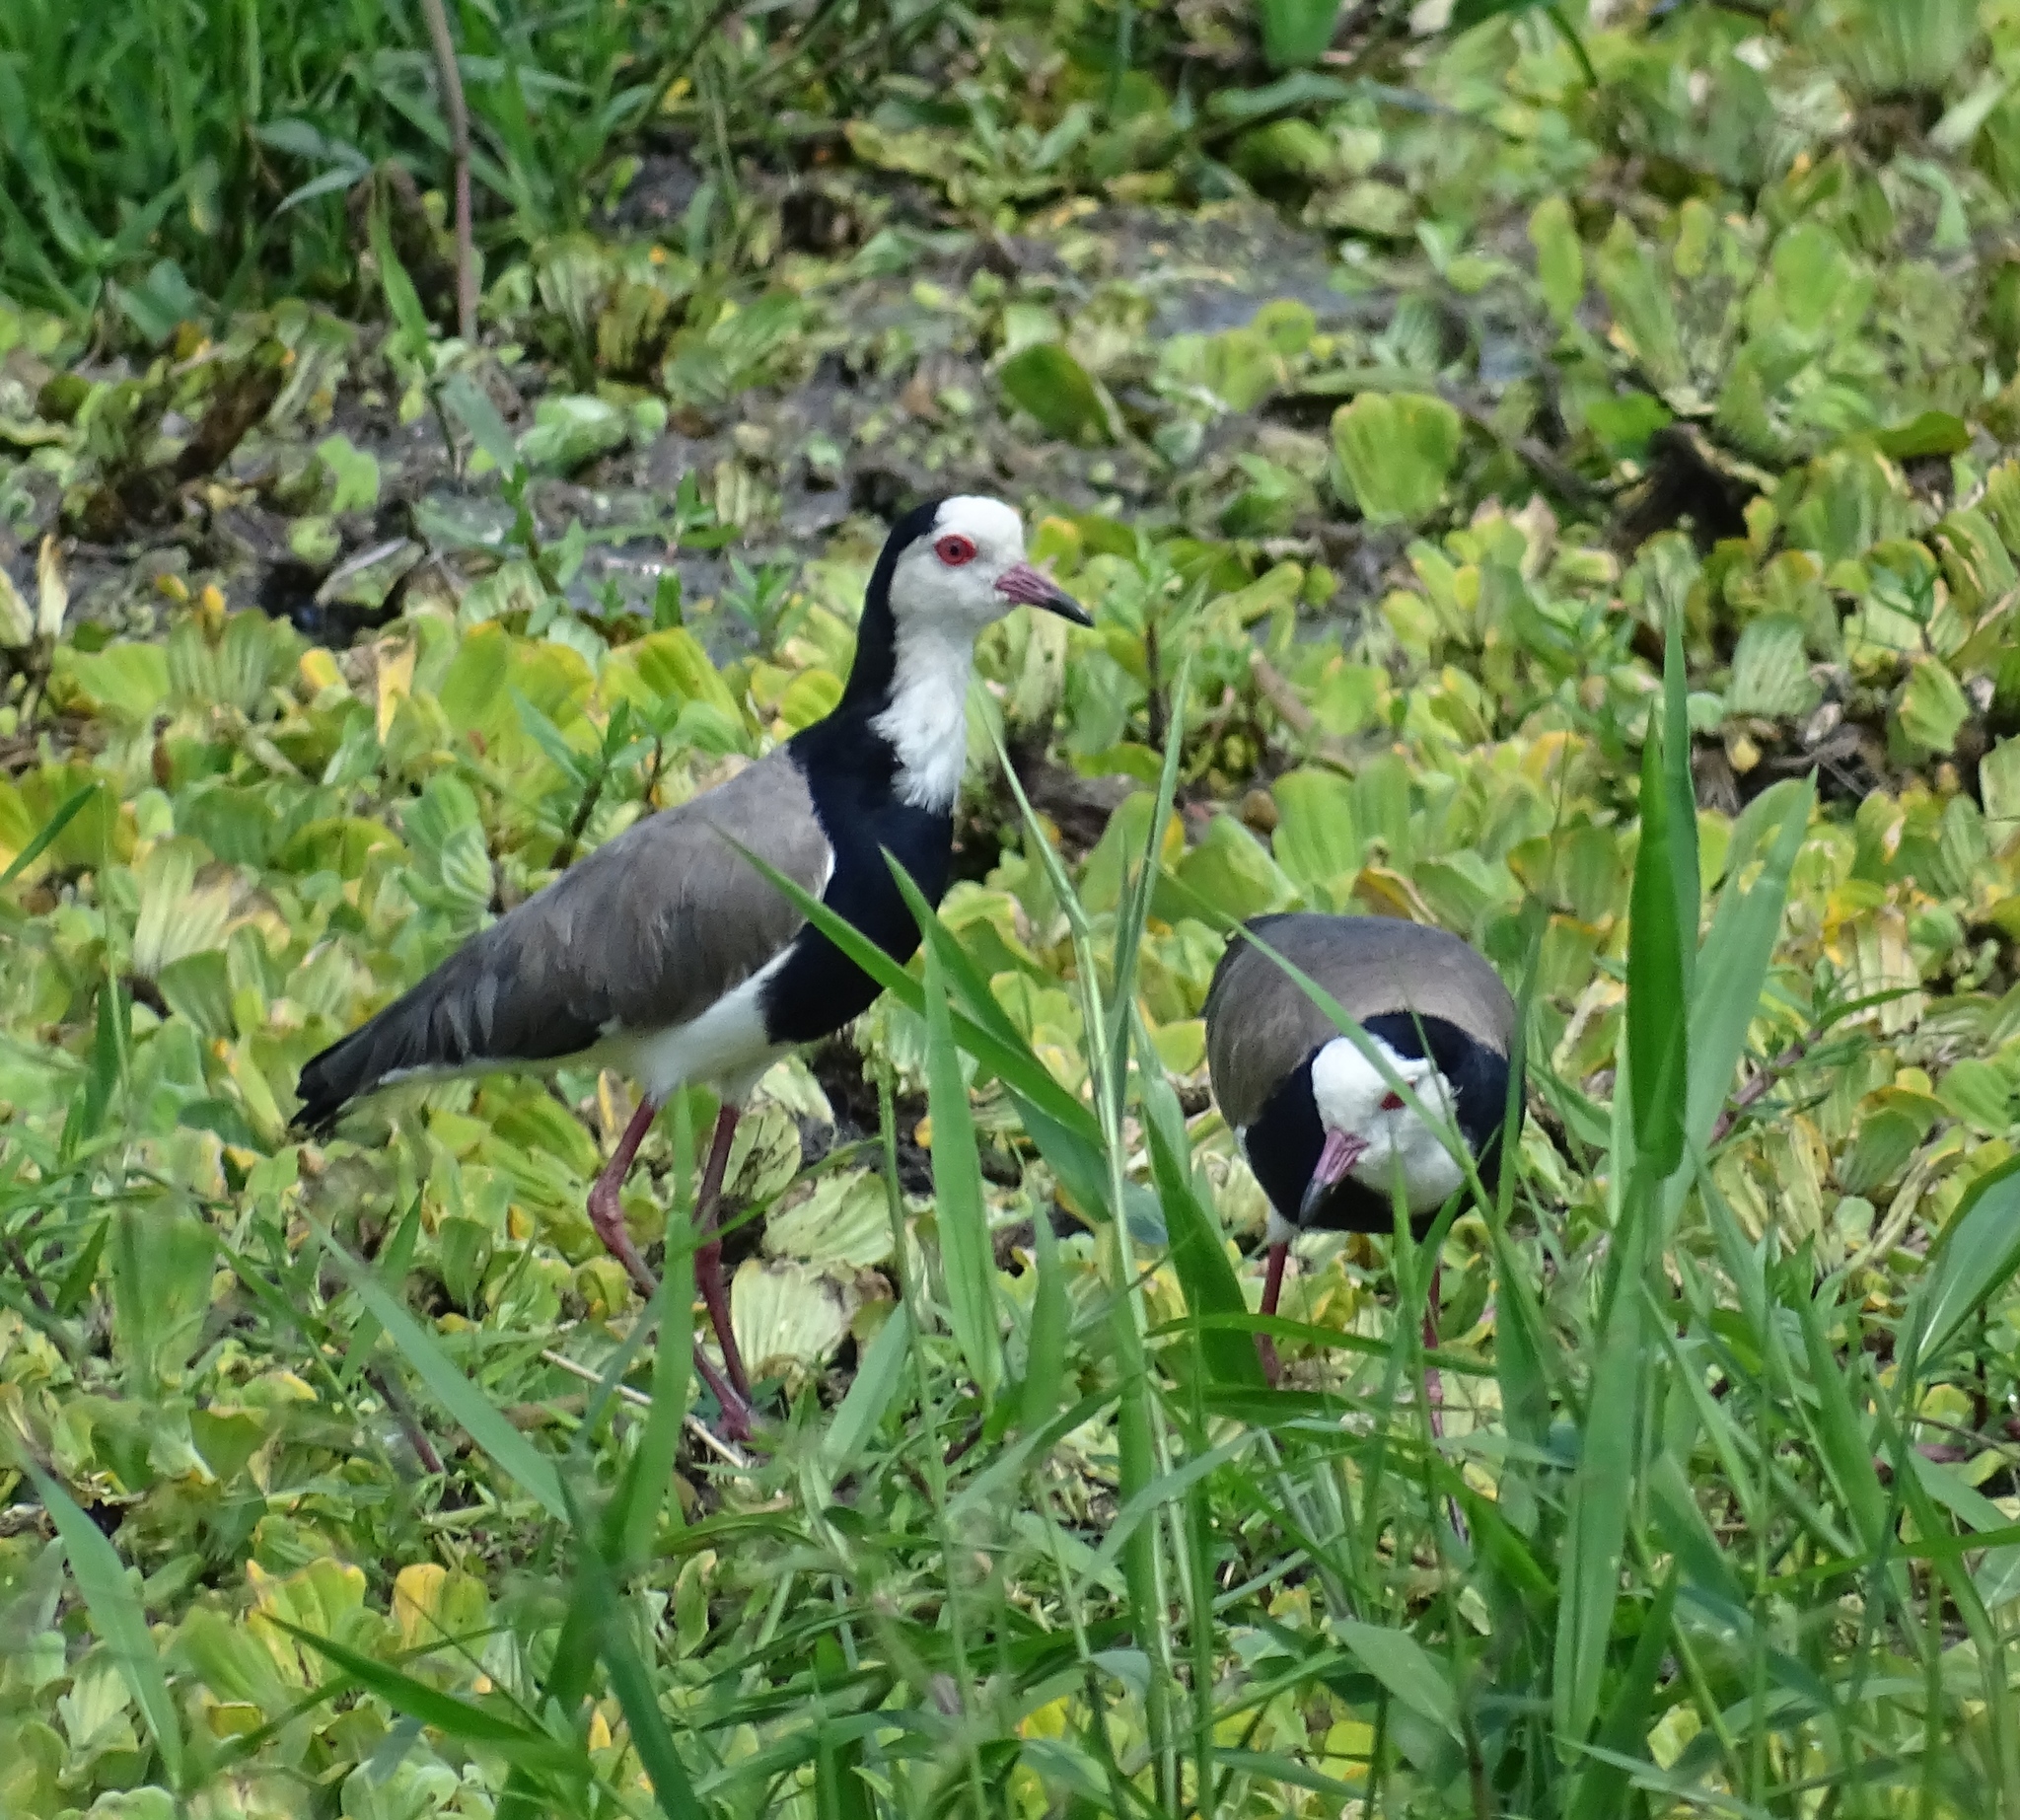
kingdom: Animalia
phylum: Chordata
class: Aves
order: Charadriiformes
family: Charadriidae
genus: Vanellus
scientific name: Vanellus crassirostris
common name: Long-toed lapwing
